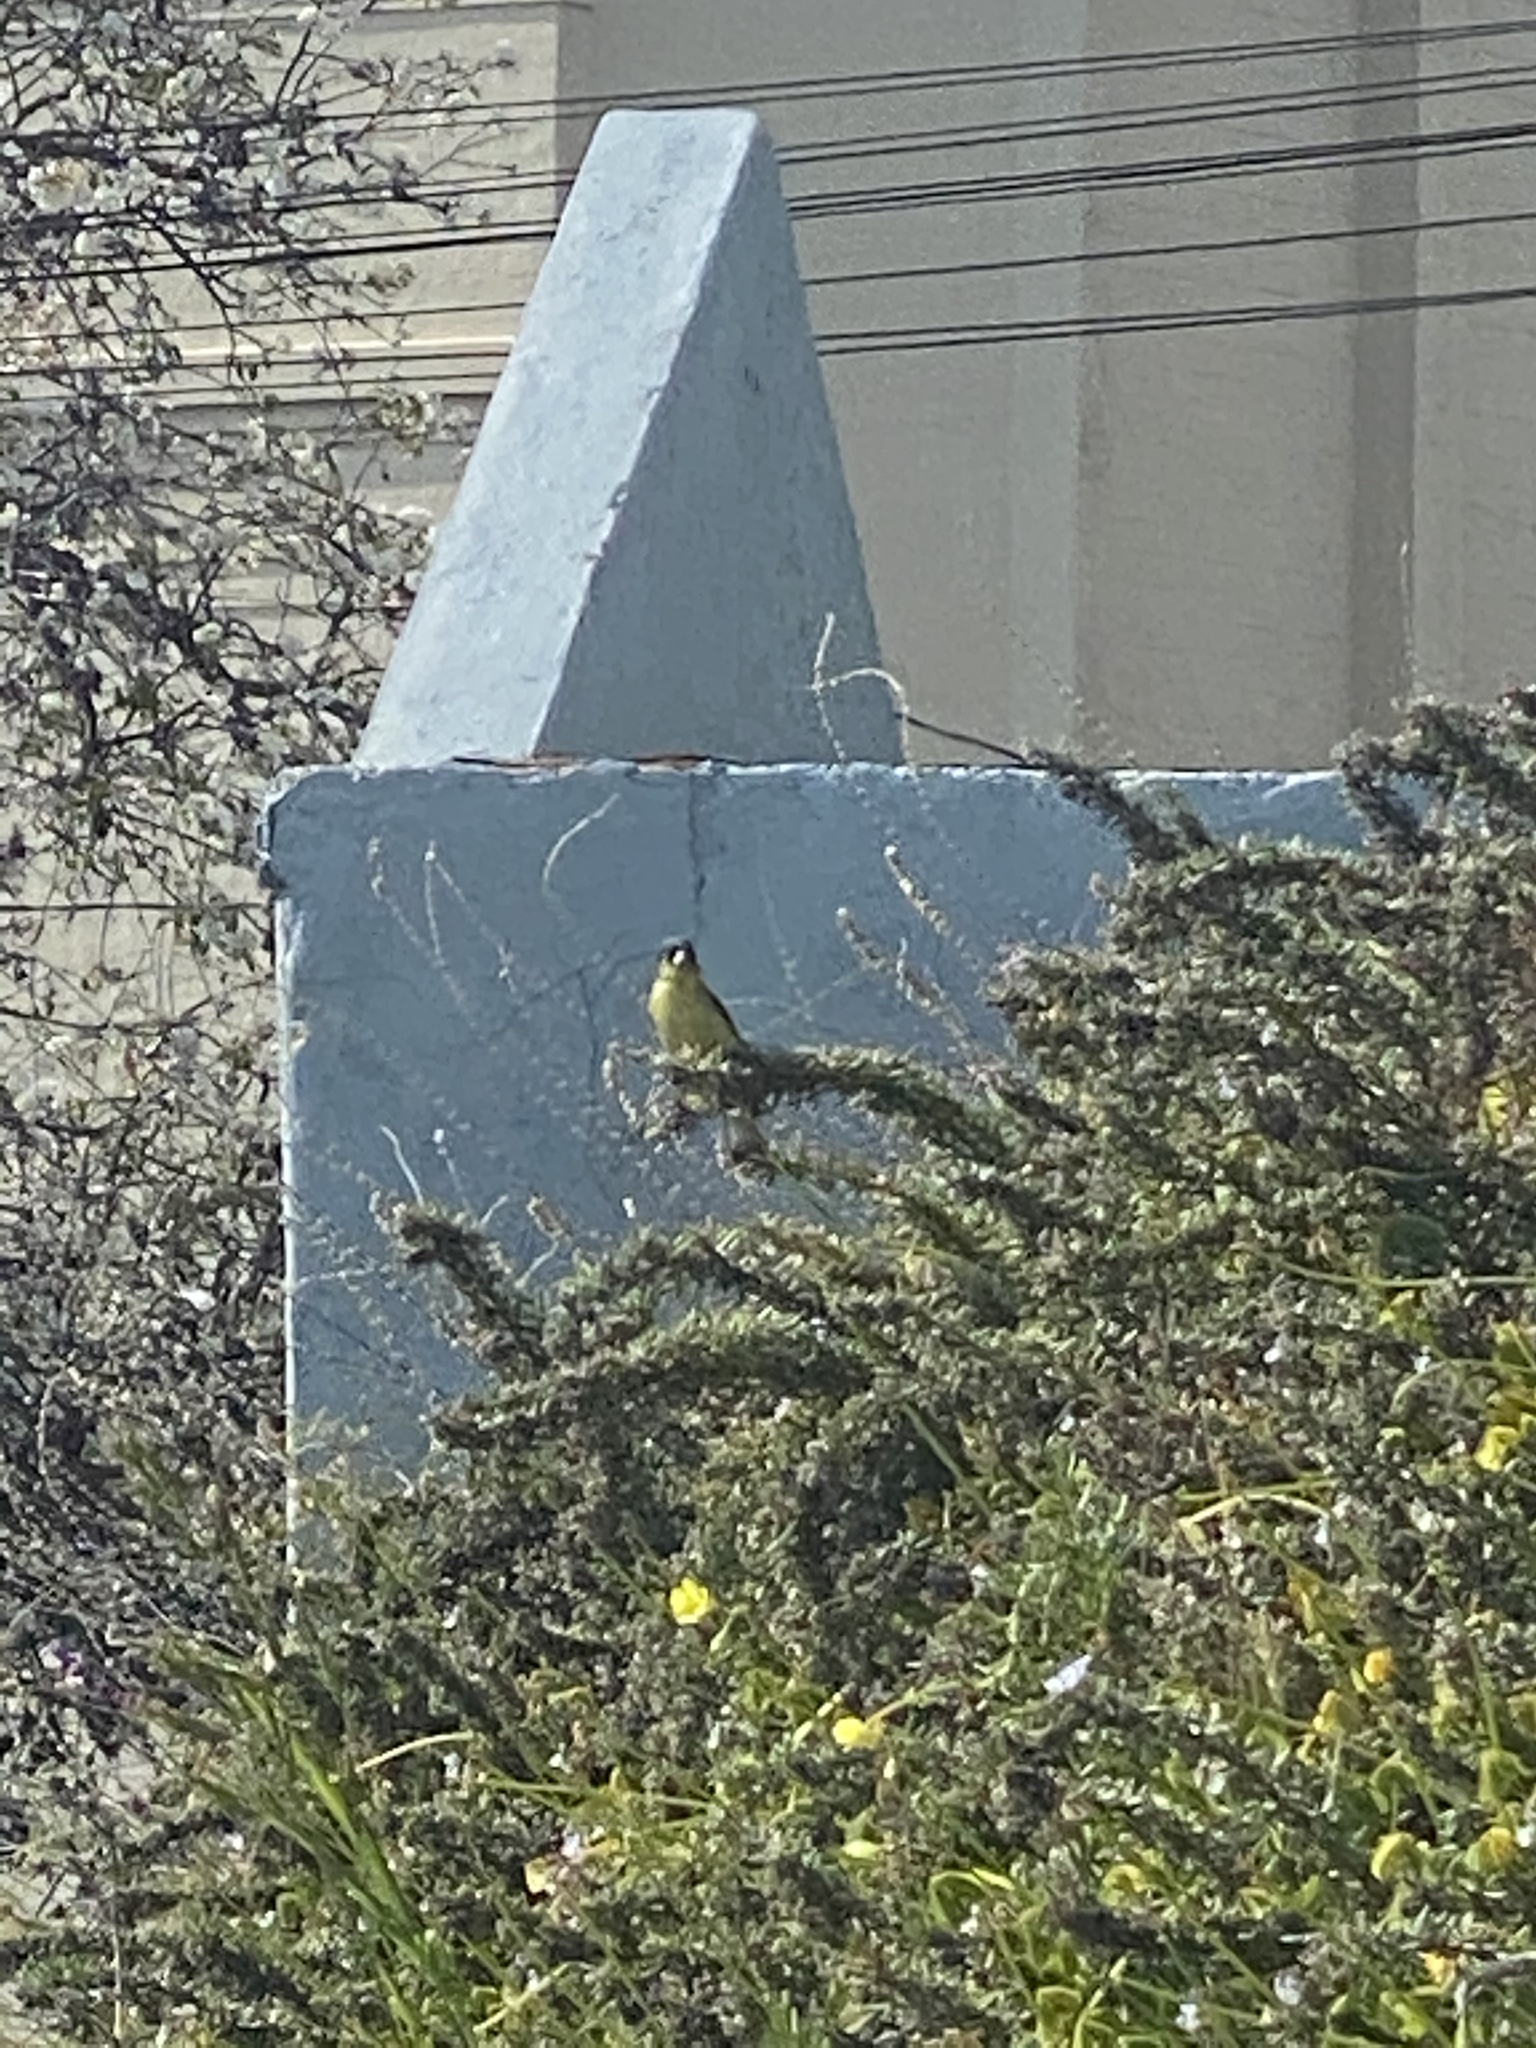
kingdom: Animalia
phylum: Chordata
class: Aves
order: Passeriformes
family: Fringillidae
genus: Spinus
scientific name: Spinus psaltria
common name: Lesser goldfinch
